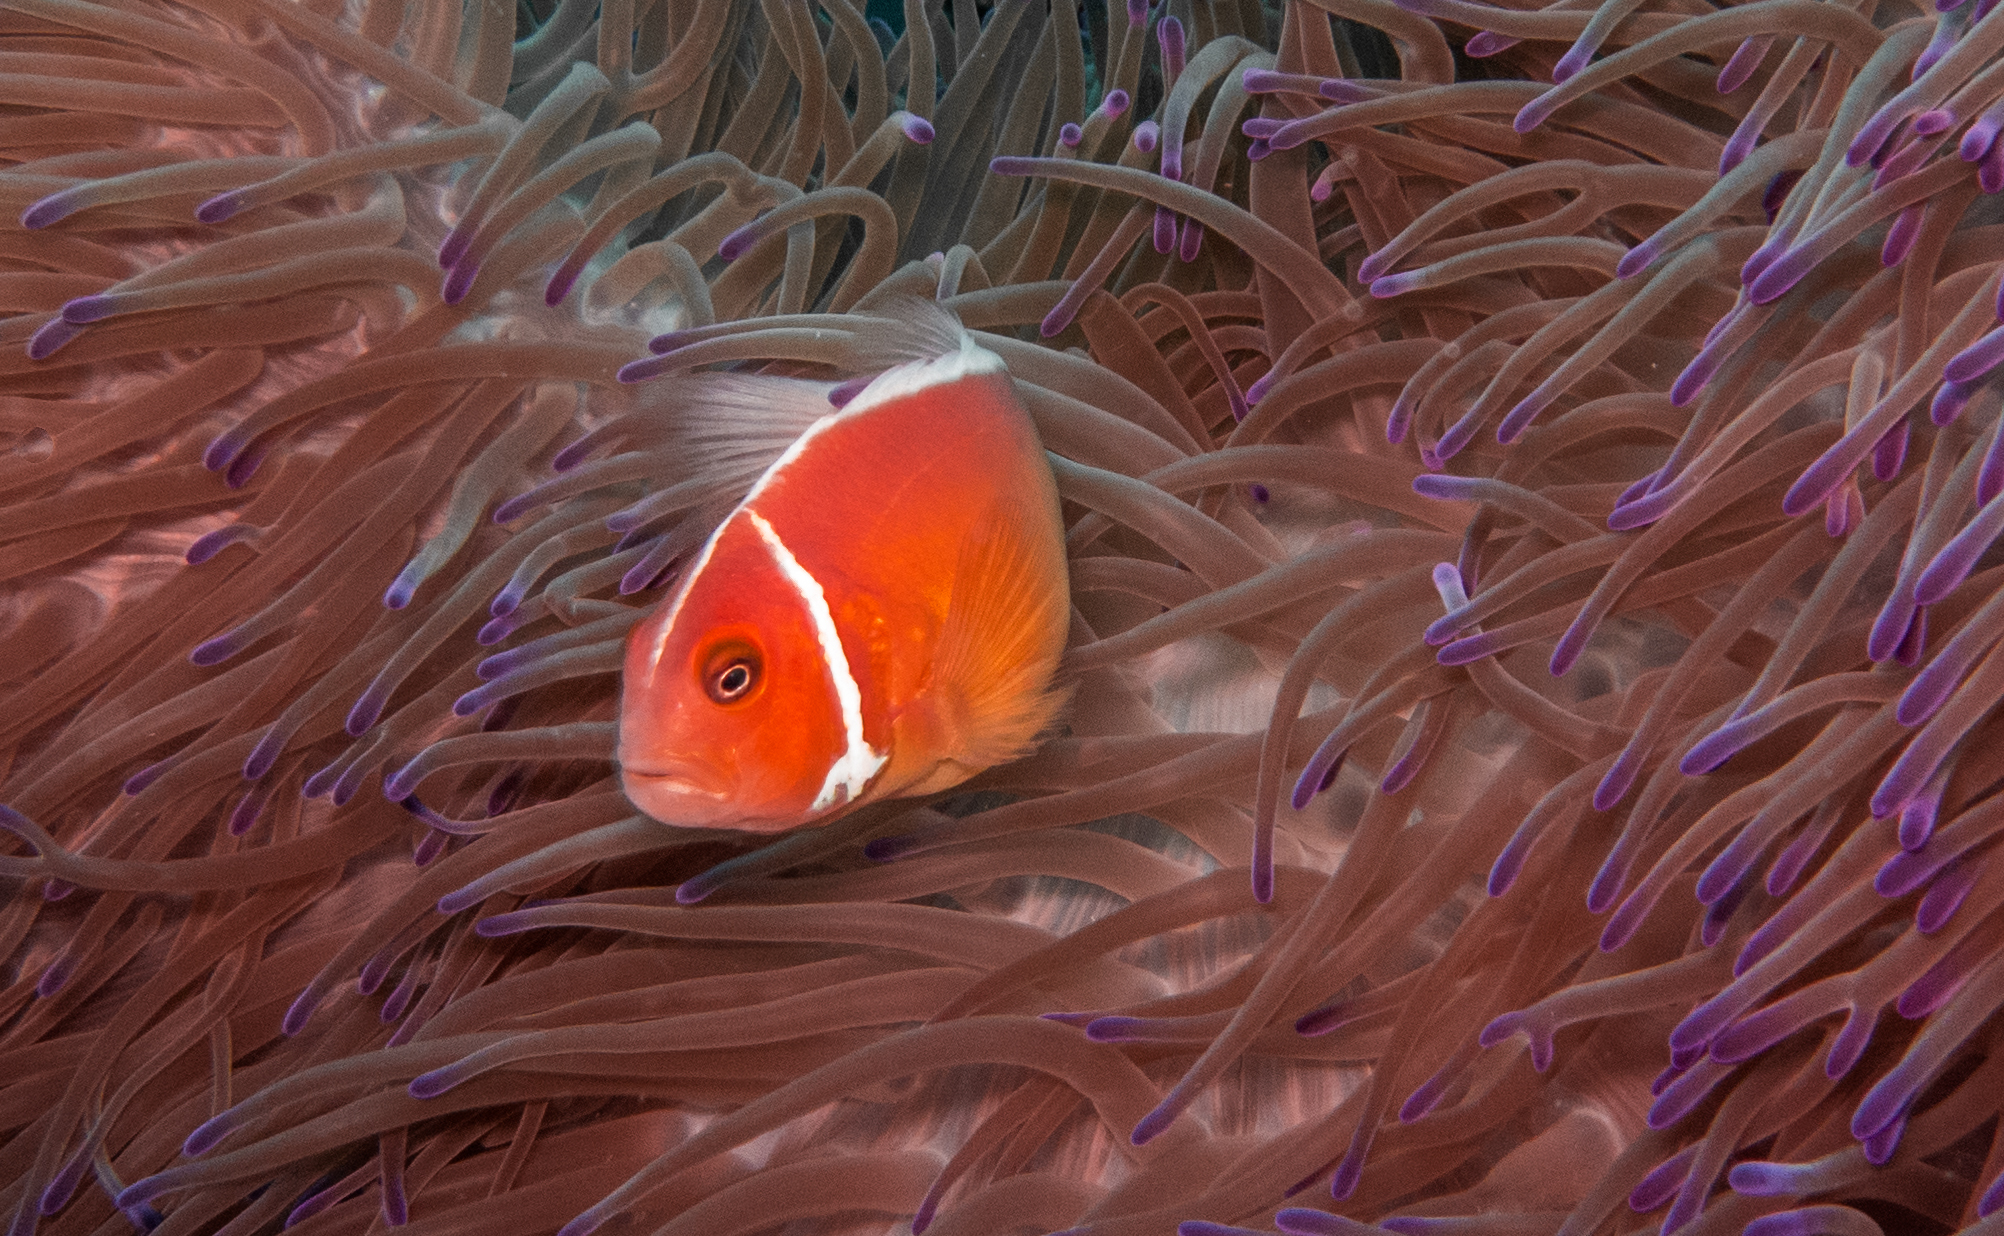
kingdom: Animalia
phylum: Chordata
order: Perciformes
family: Pomacentridae
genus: Amphiprion
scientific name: Amphiprion perideraion
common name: Pink anemonefish
